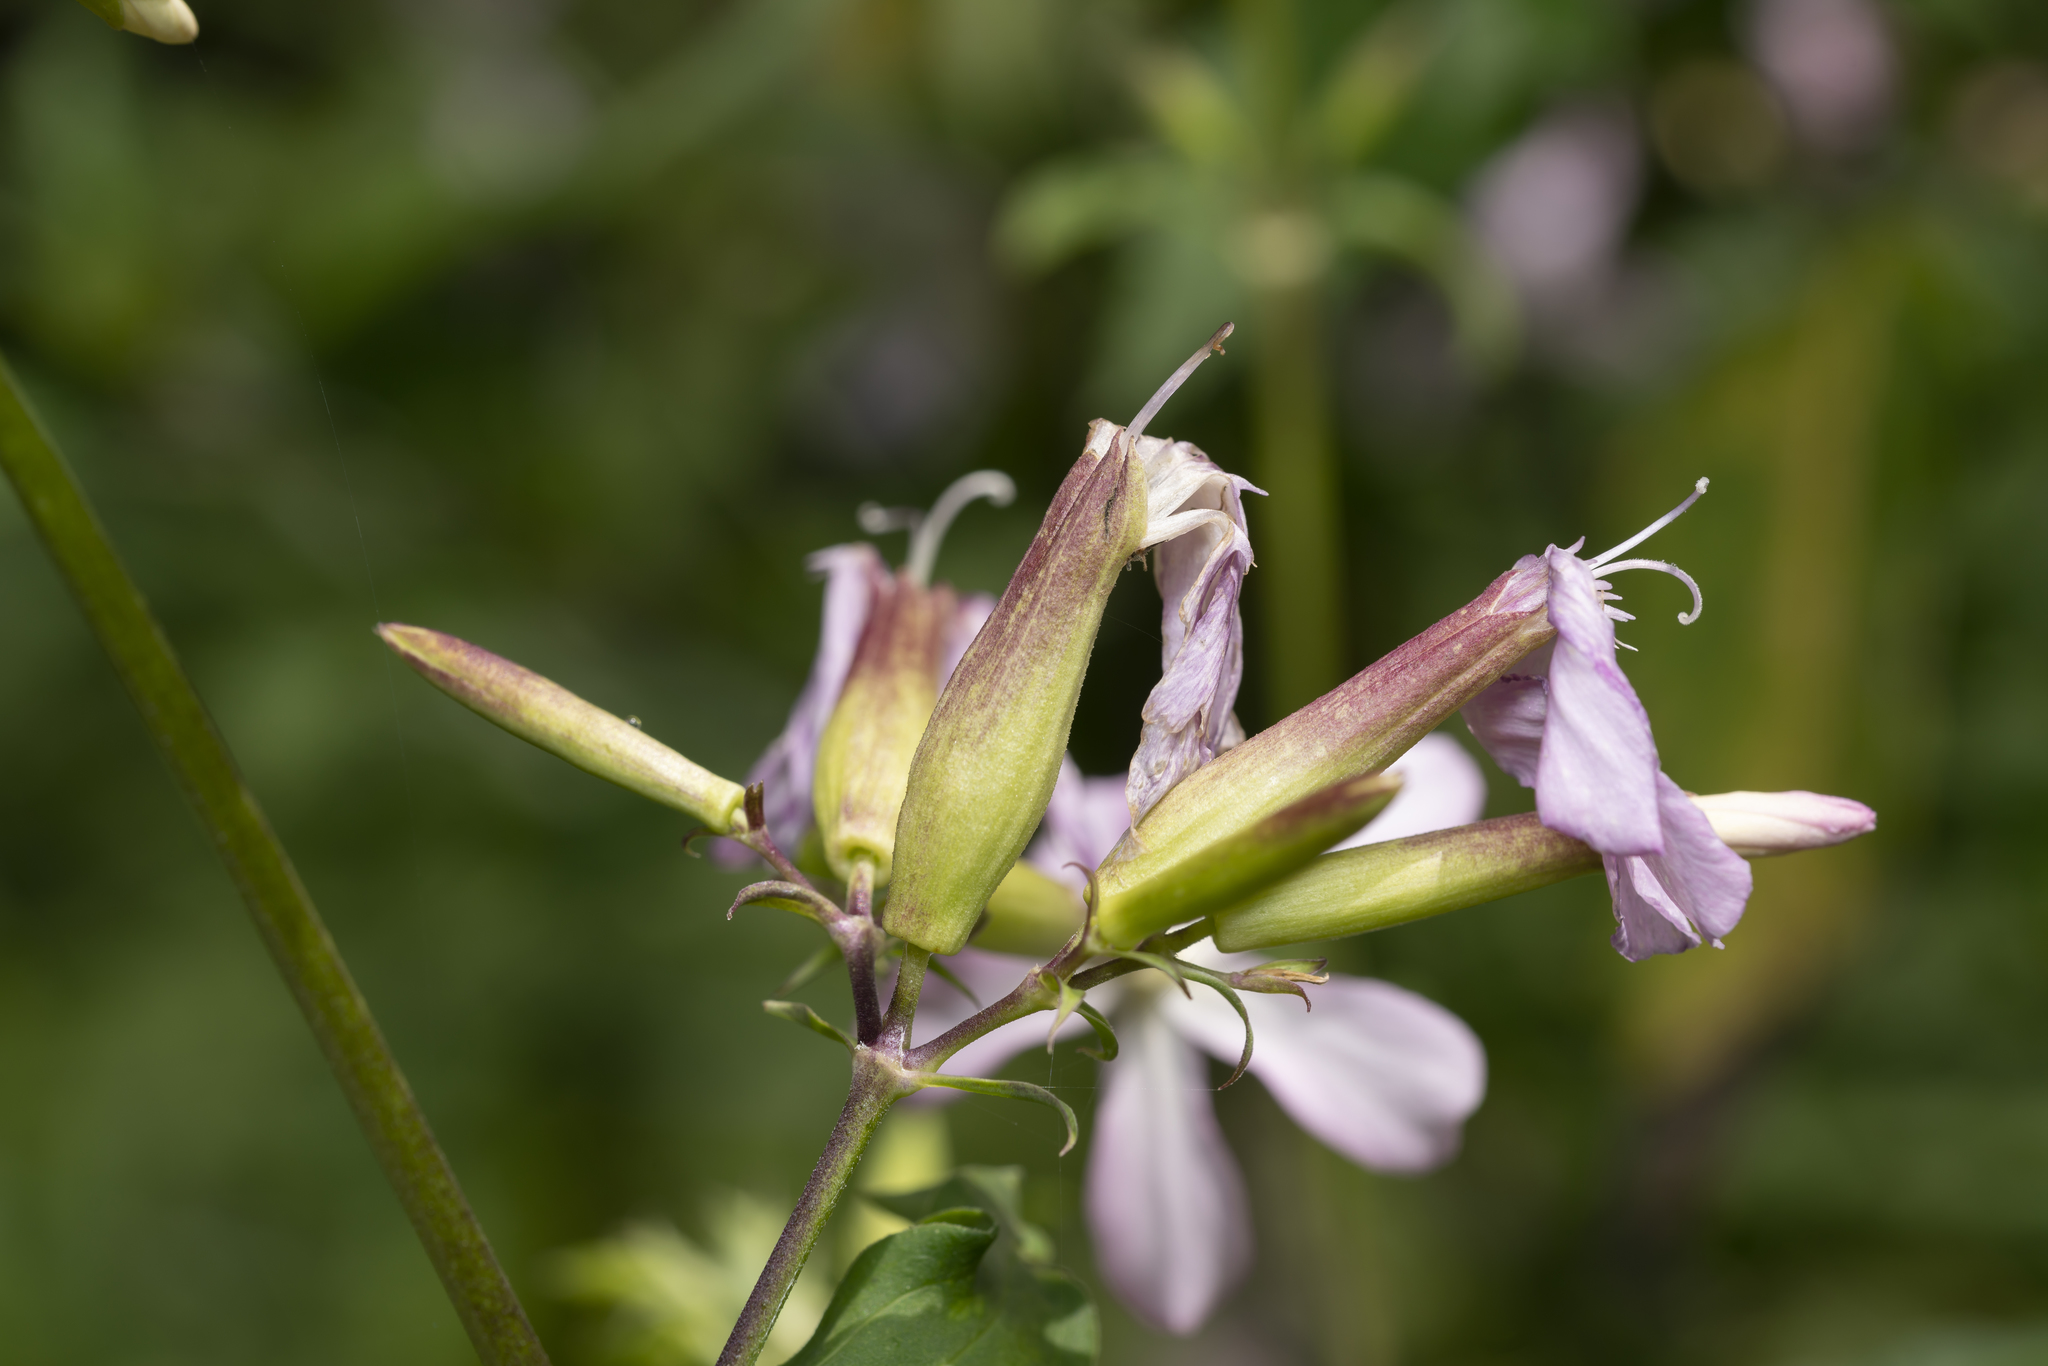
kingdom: Plantae
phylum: Tracheophyta
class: Magnoliopsida
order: Caryophyllales
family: Caryophyllaceae
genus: Saponaria
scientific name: Saponaria officinalis
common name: Soapwort
